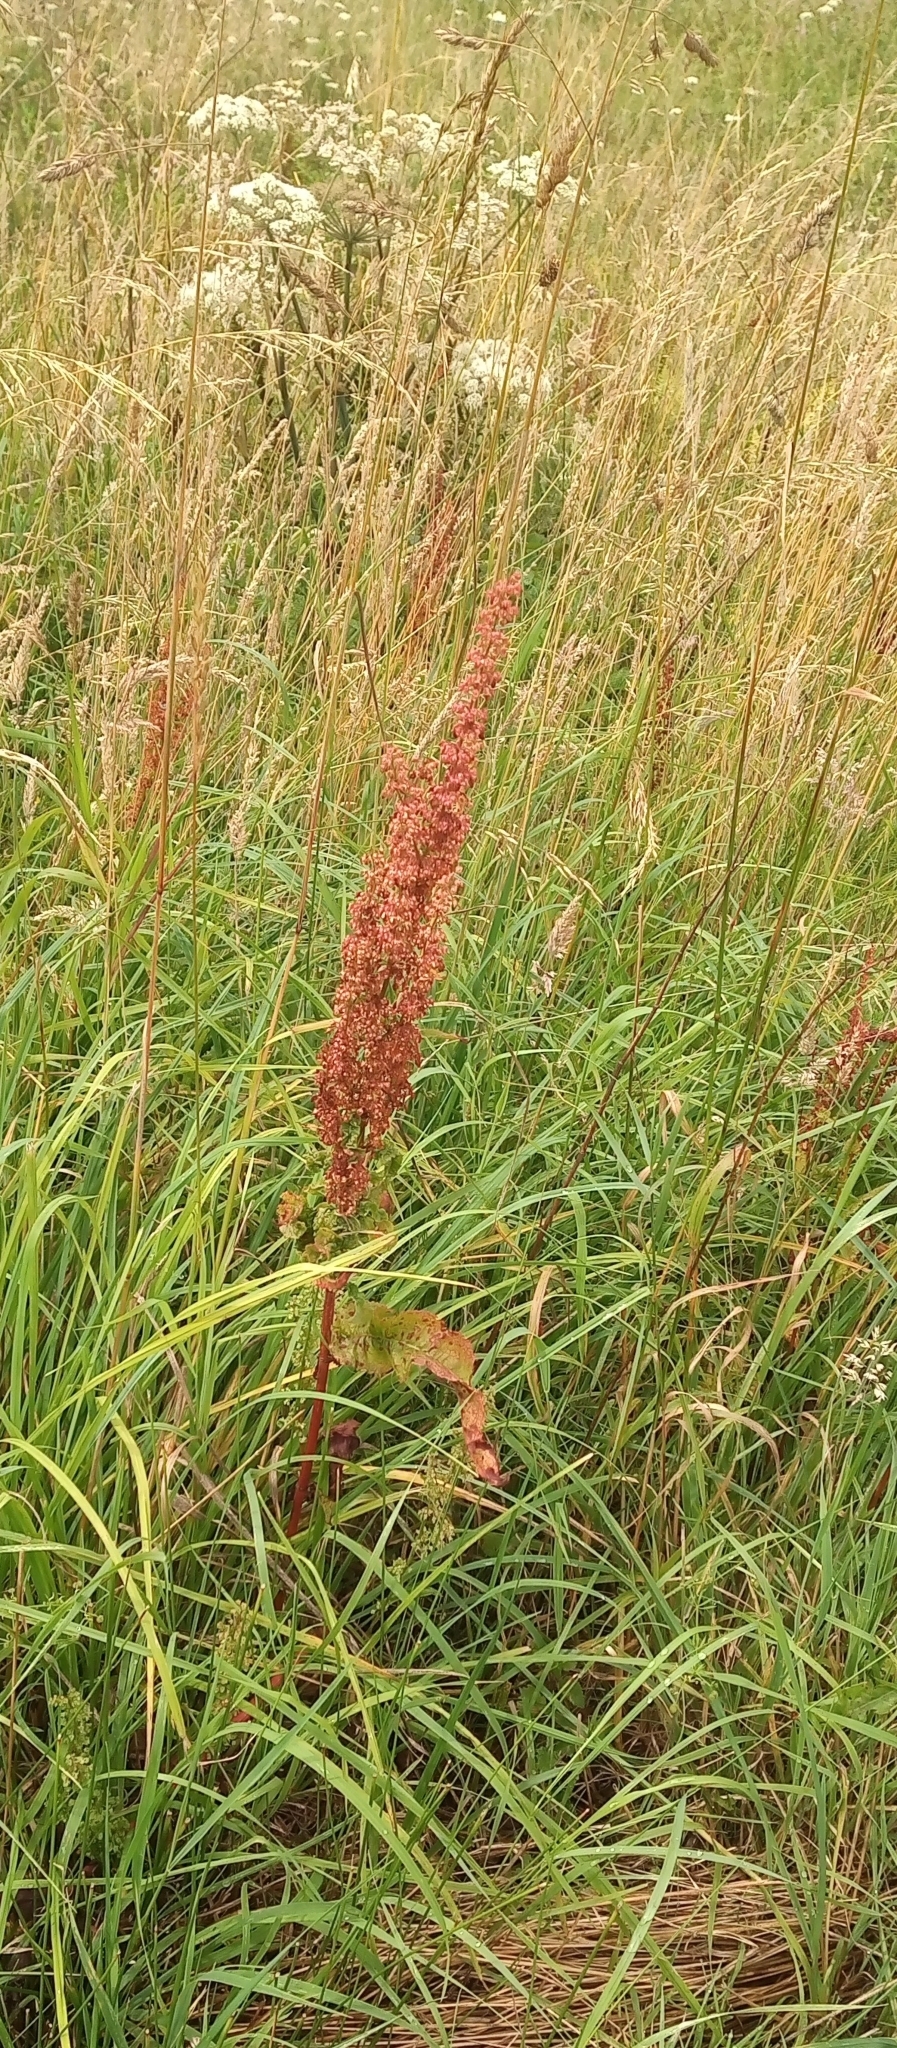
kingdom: Plantae
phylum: Tracheophyta
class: Magnoliopsida
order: Caryophyllales
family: Polygonaceae
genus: Rumex
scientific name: Rumex crispus
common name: Curled dock
